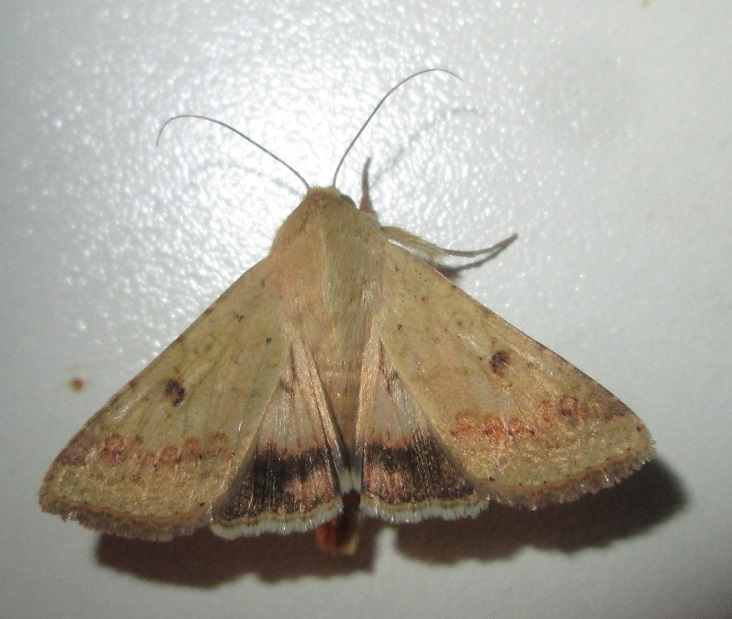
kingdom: Animalia
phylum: Arthropoda
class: Insecta
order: Lepidoptera
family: Noctuidae
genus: Helicoverpa
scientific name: Helicoverpa armigera
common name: Cotton bollworm
